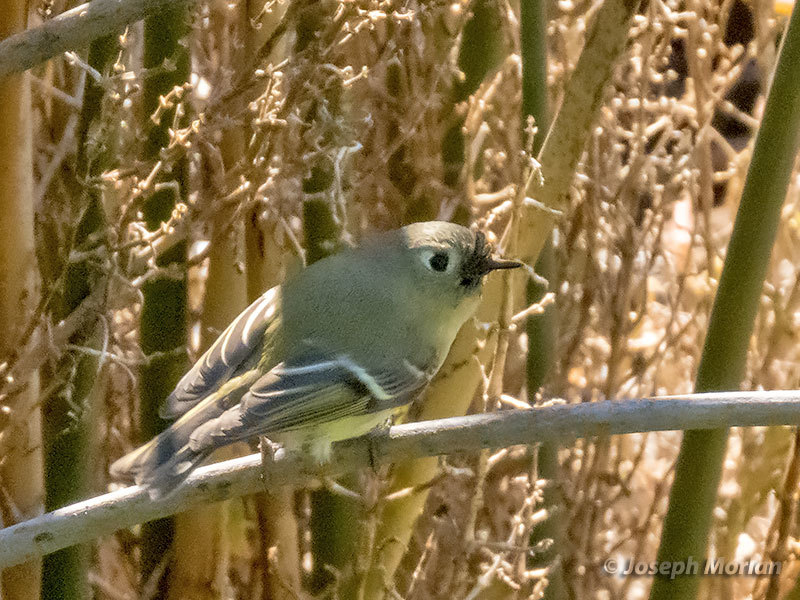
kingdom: Animalia
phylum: Chordata
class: Aves
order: Passeriformes
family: Regulidae
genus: Regulus
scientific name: Regulus calendula
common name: Ruby-crowned kinglet
